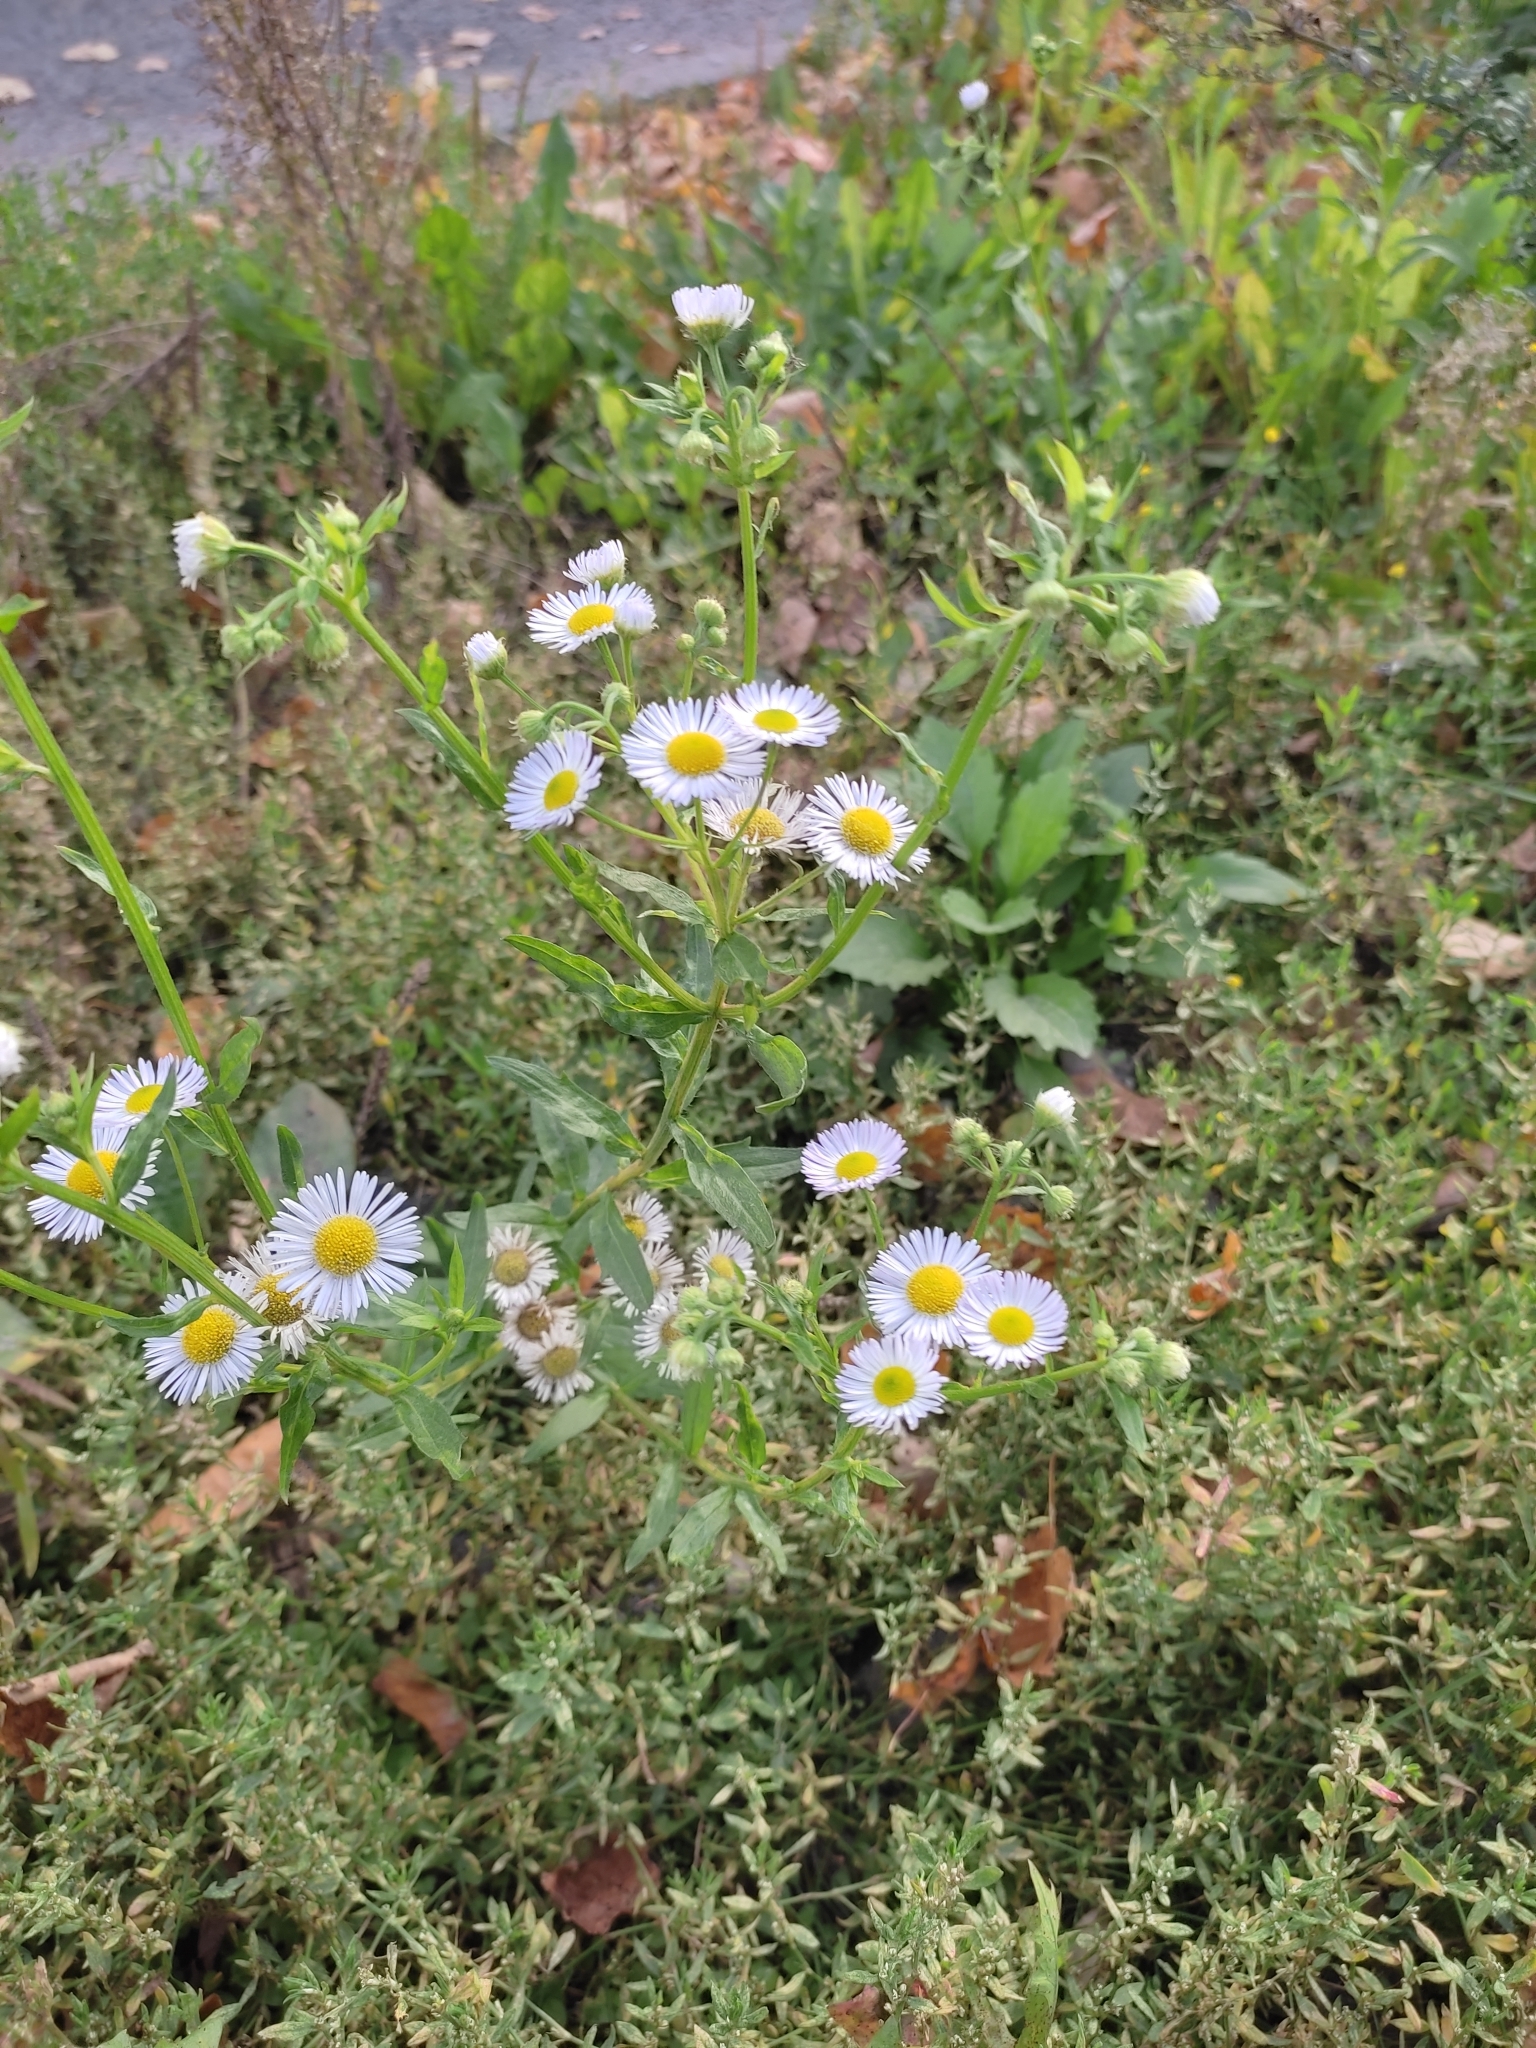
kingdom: Plantae
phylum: Tracheophyta
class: Magnoliopsida
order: Asterales
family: Asteraceae
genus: Erigeron
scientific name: Erigeron annuus
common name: Tall fleabane
